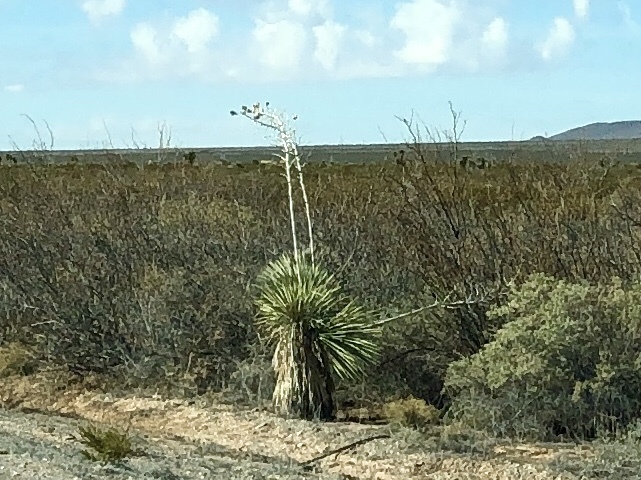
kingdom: Plantae
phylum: Tracheophyta
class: Liliopsida
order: Asparagales
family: Asparagaceae
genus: Yucca
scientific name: Yucca elata
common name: Palmella
